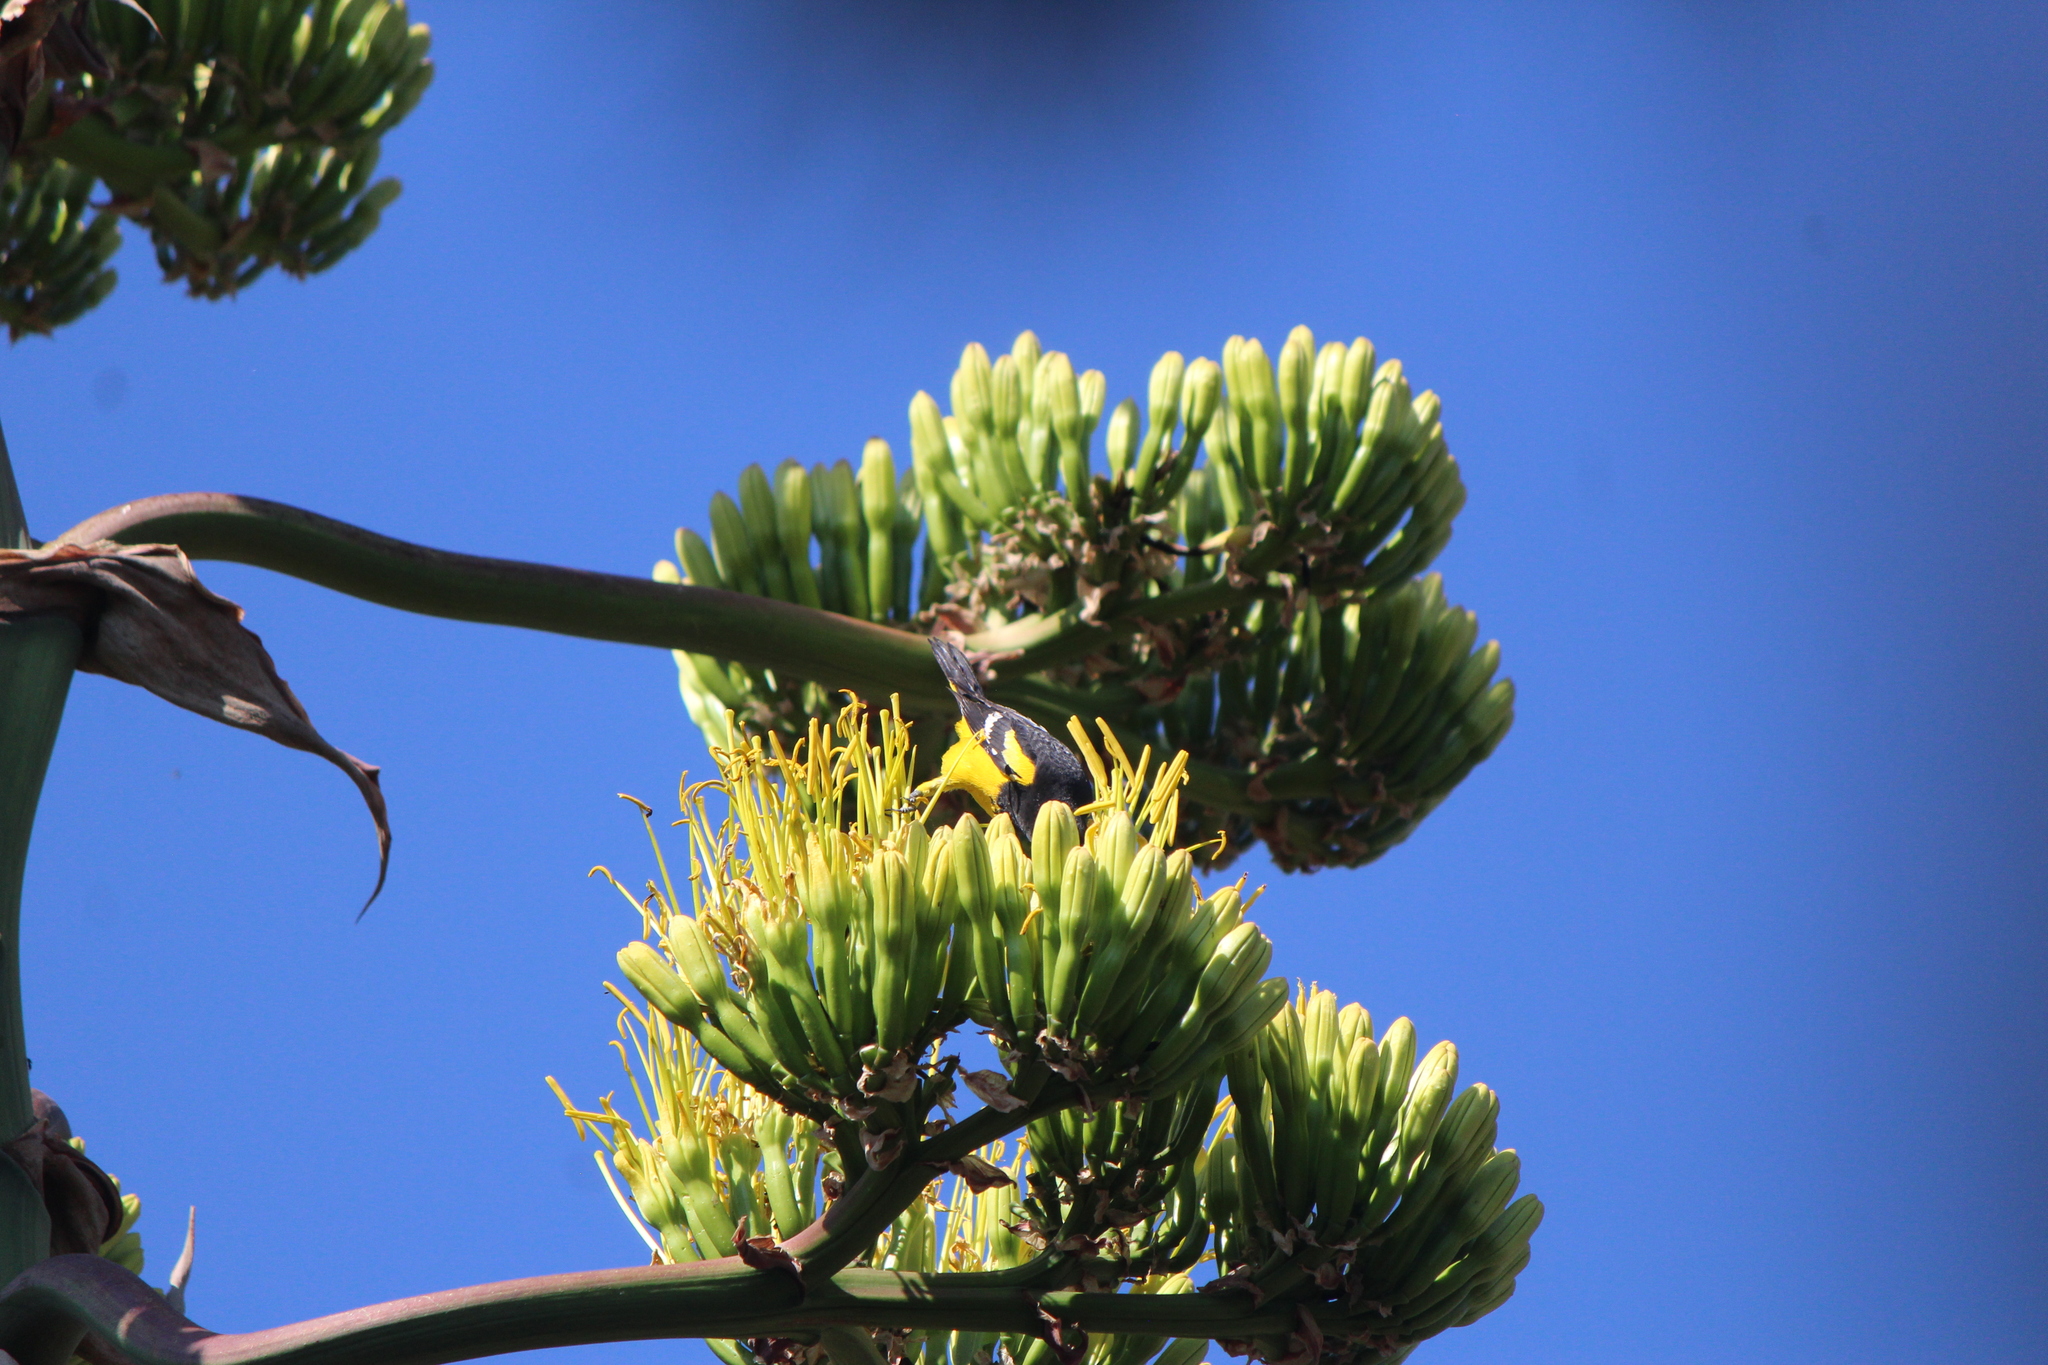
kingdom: Animalia
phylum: Chordata
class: Aves
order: Passeriformes
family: Icteridae
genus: Icterus
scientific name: Icterus parisorum
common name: Scott's oriole
